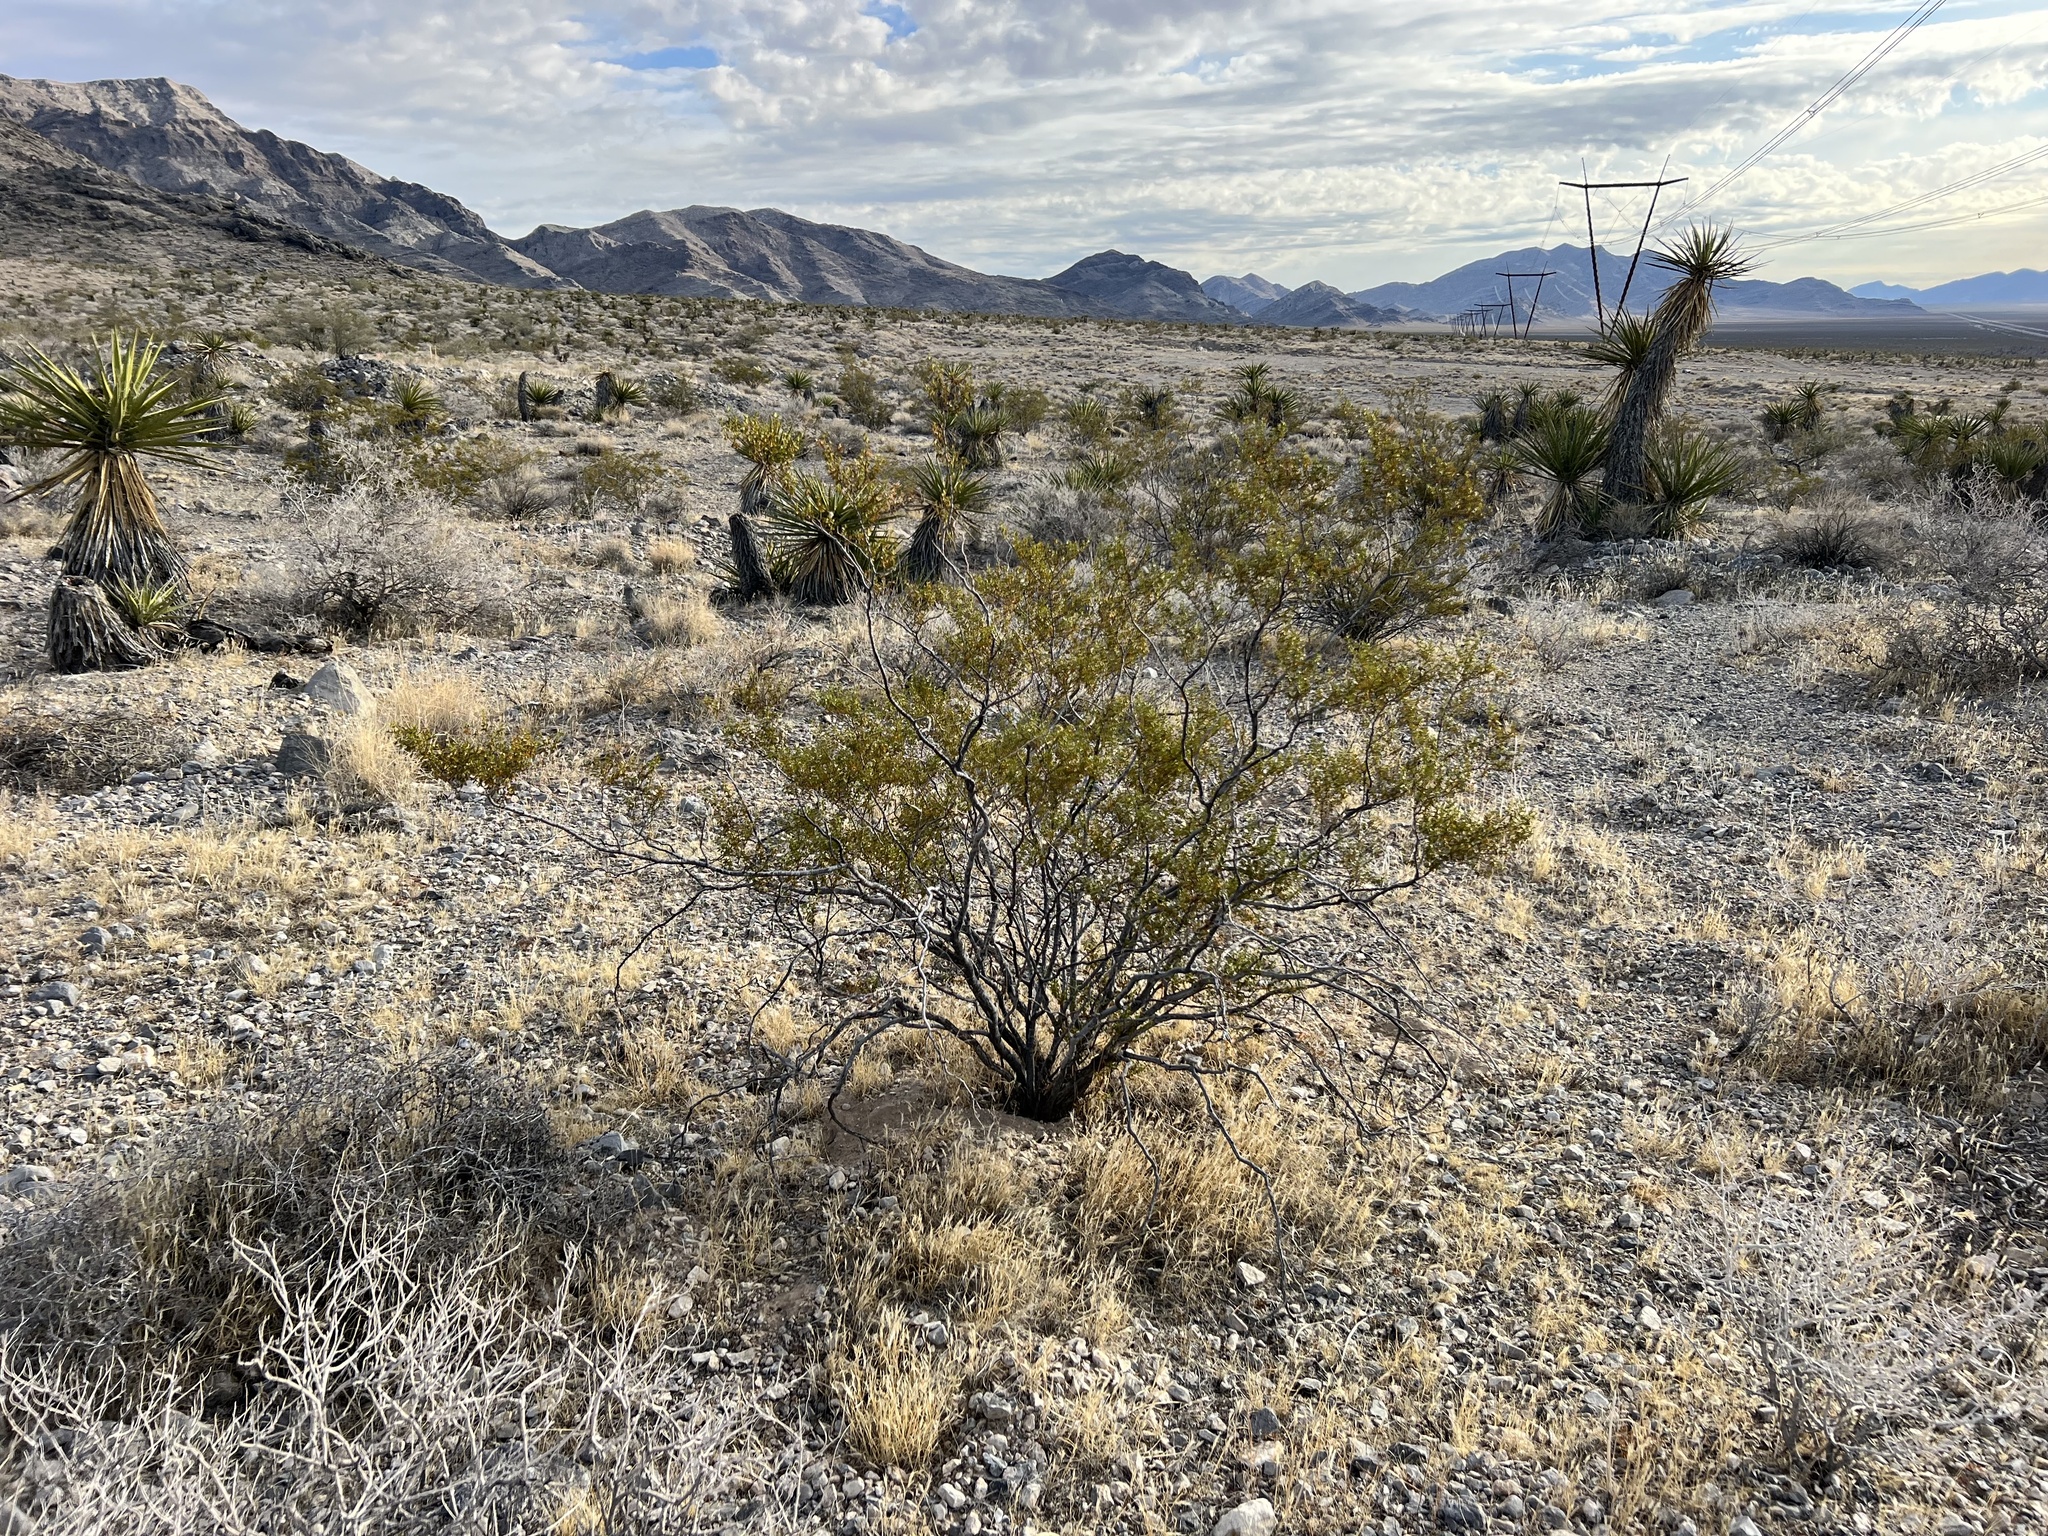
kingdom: Plantae
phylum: Tracheophyta
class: Magnoliopsida
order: Zygophyllales
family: Zygophyllaceae
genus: Larrea
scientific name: Larrea tridentata
